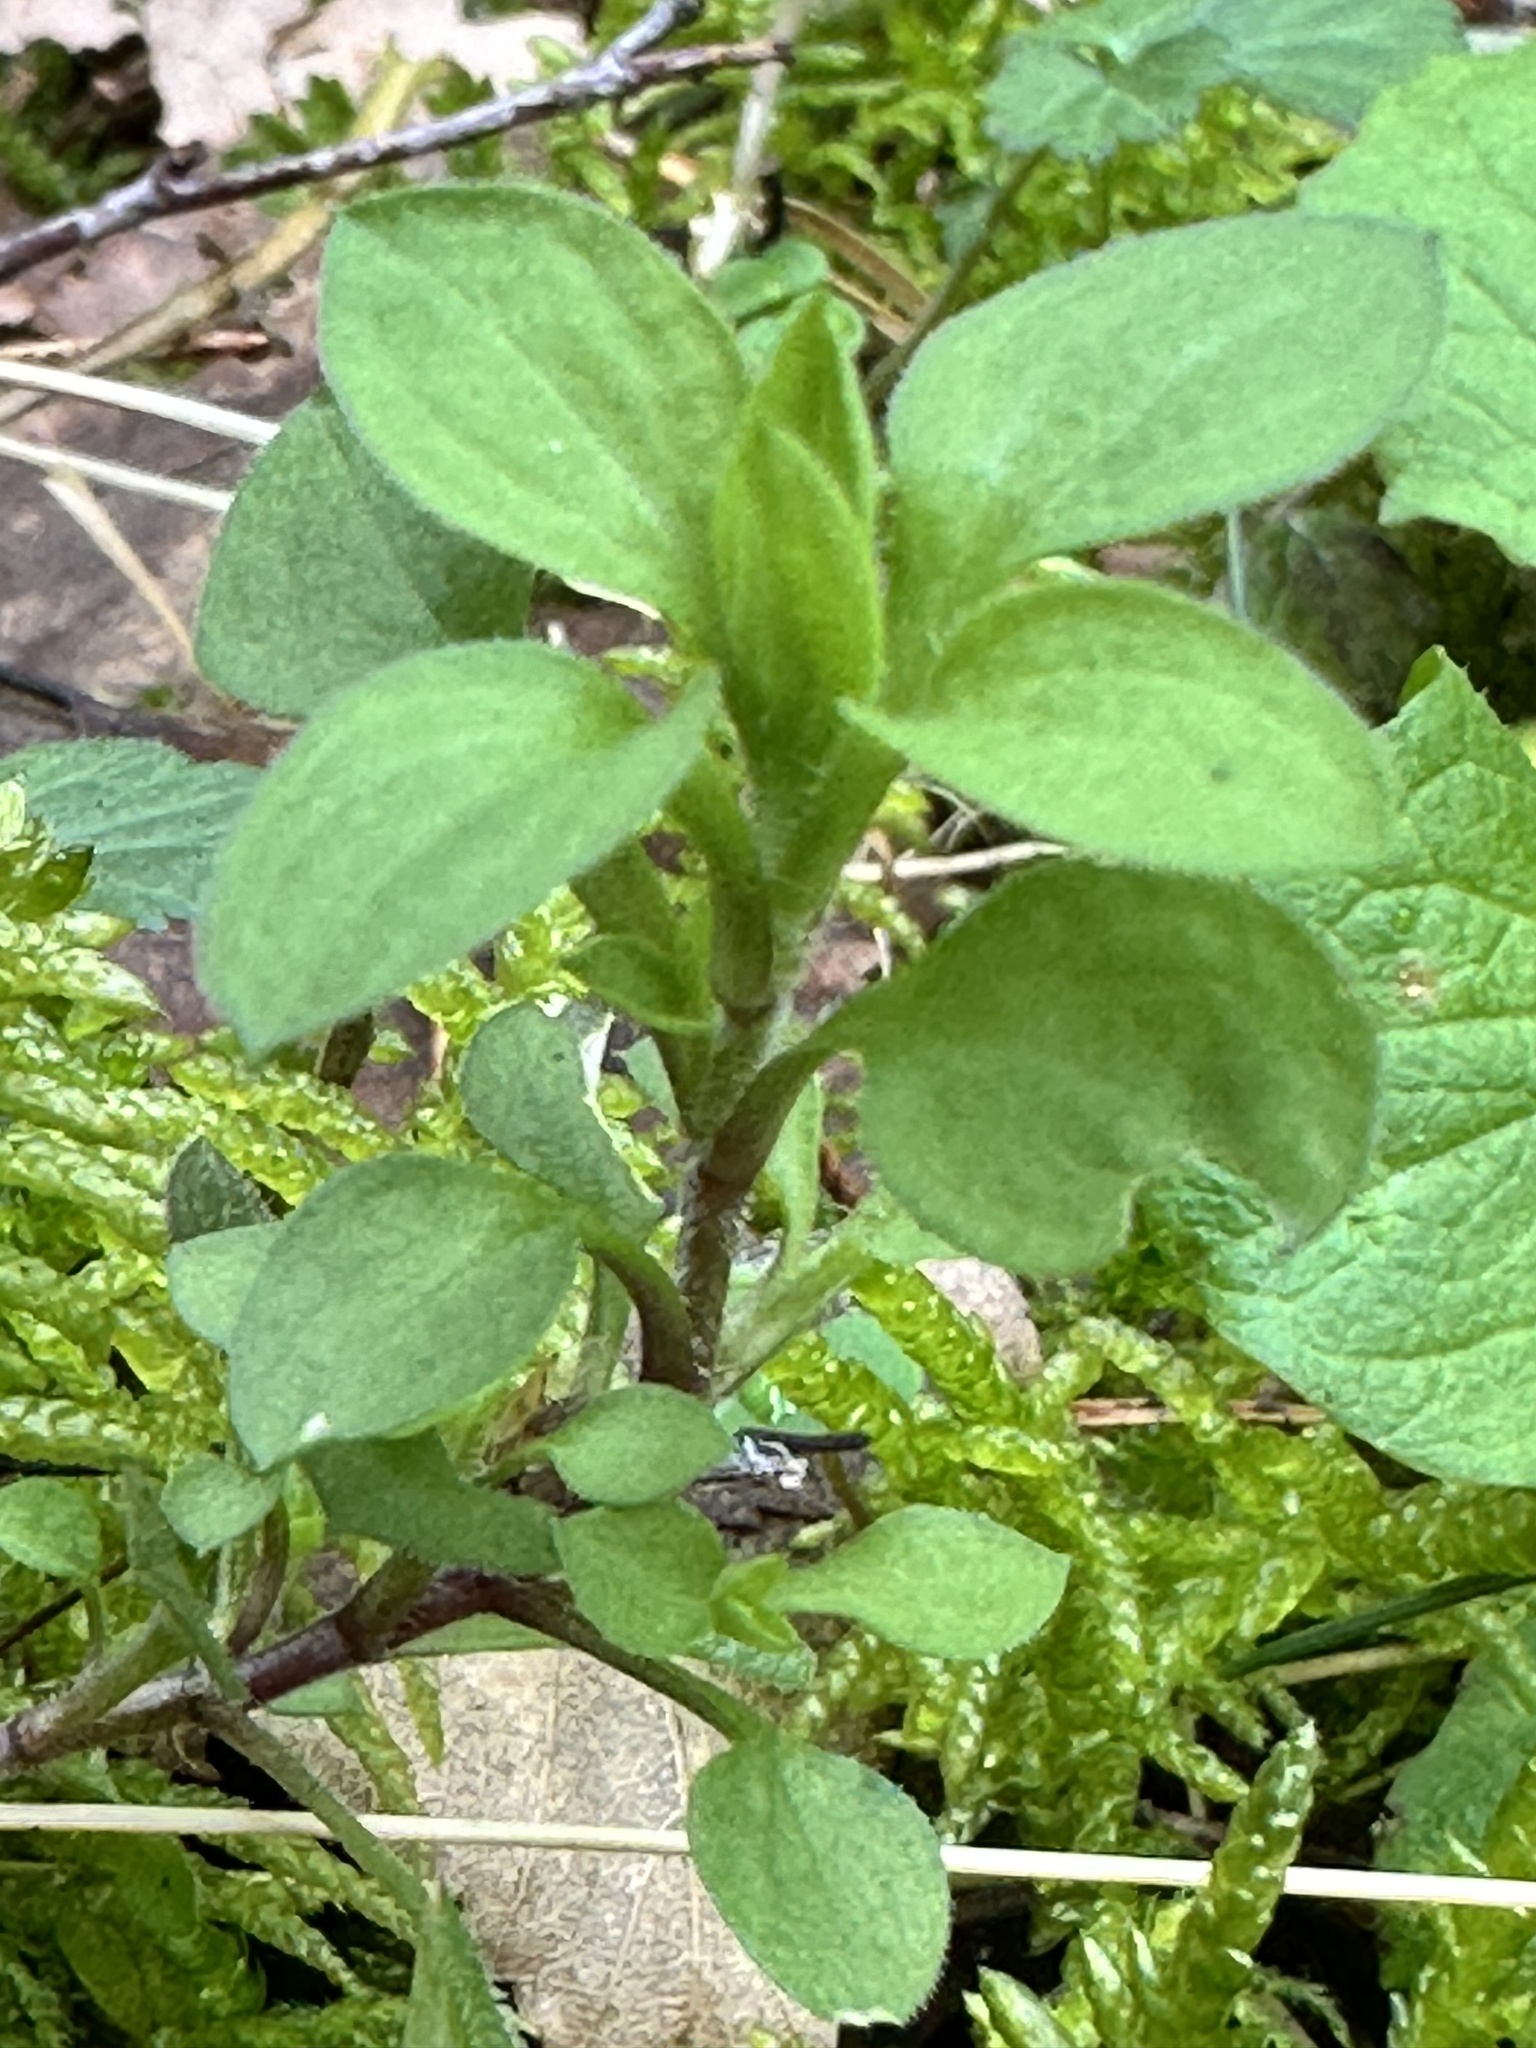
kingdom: Plantae
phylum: Tracheophyta
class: Magnoliopsida
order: Caryophyllales
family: Caryophyllaceae
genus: Moehringia
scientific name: Moehringia trinervia
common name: Three-nerved sandwort
